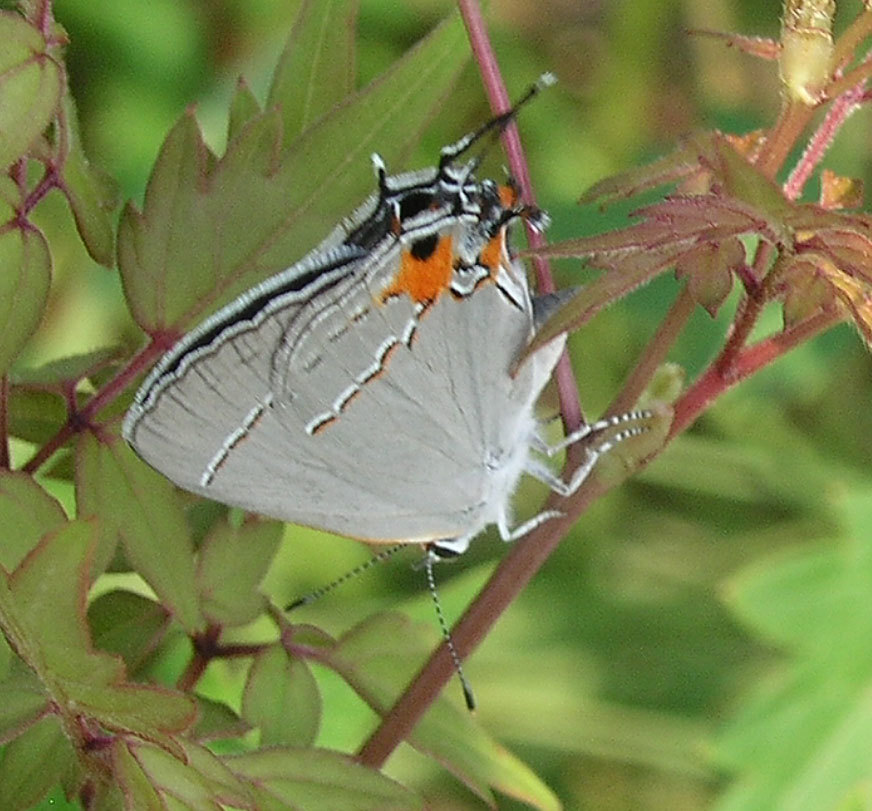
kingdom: Animalia
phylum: Arthropoda
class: Insecta
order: Lepidoptera
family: Lycaenidae
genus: Strymon
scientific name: Strymon melinus
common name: Gray hairstreak
